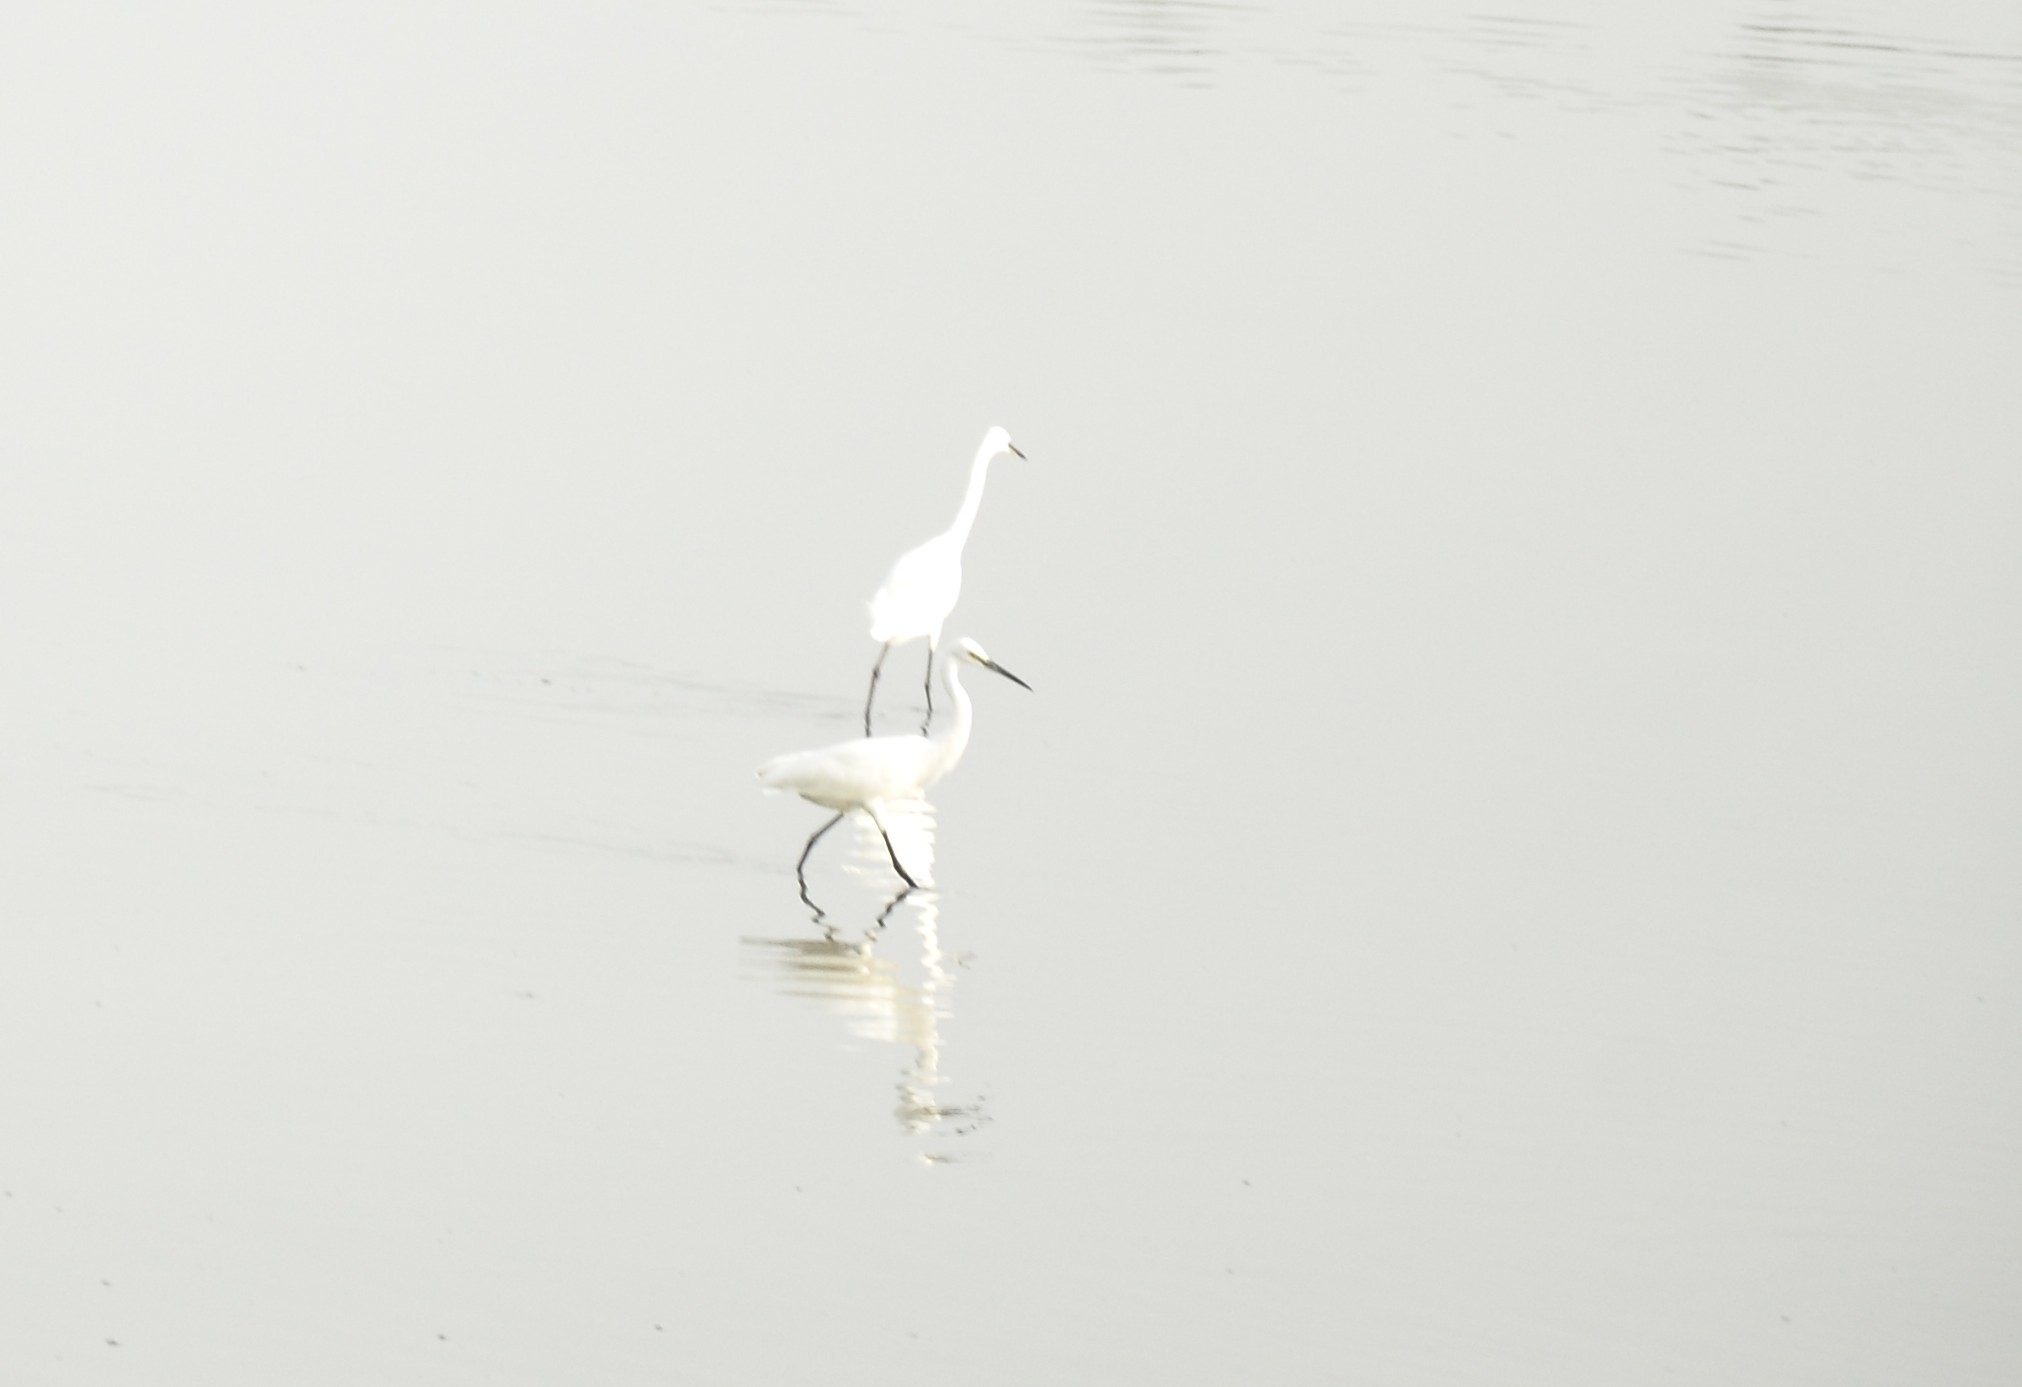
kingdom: Animalia
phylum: Chordata
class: Aves
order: Pelecaniformes
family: Ardeidae
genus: Egretta
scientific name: Egretta garzetta
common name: Little egret
